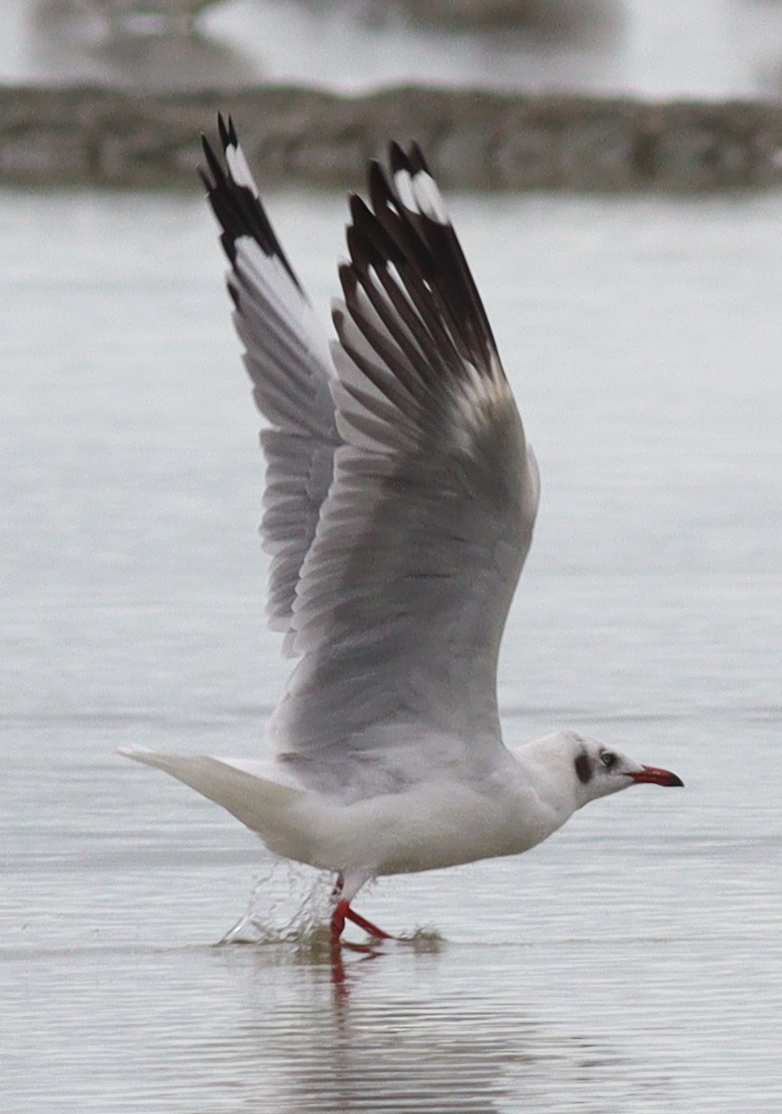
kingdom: Animalia
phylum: Chordata
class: Aves
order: Charadriiformes
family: Laridae
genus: Chroicocephalus
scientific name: Chroicocephalus brunnicephalus
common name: Brown-headed gull
